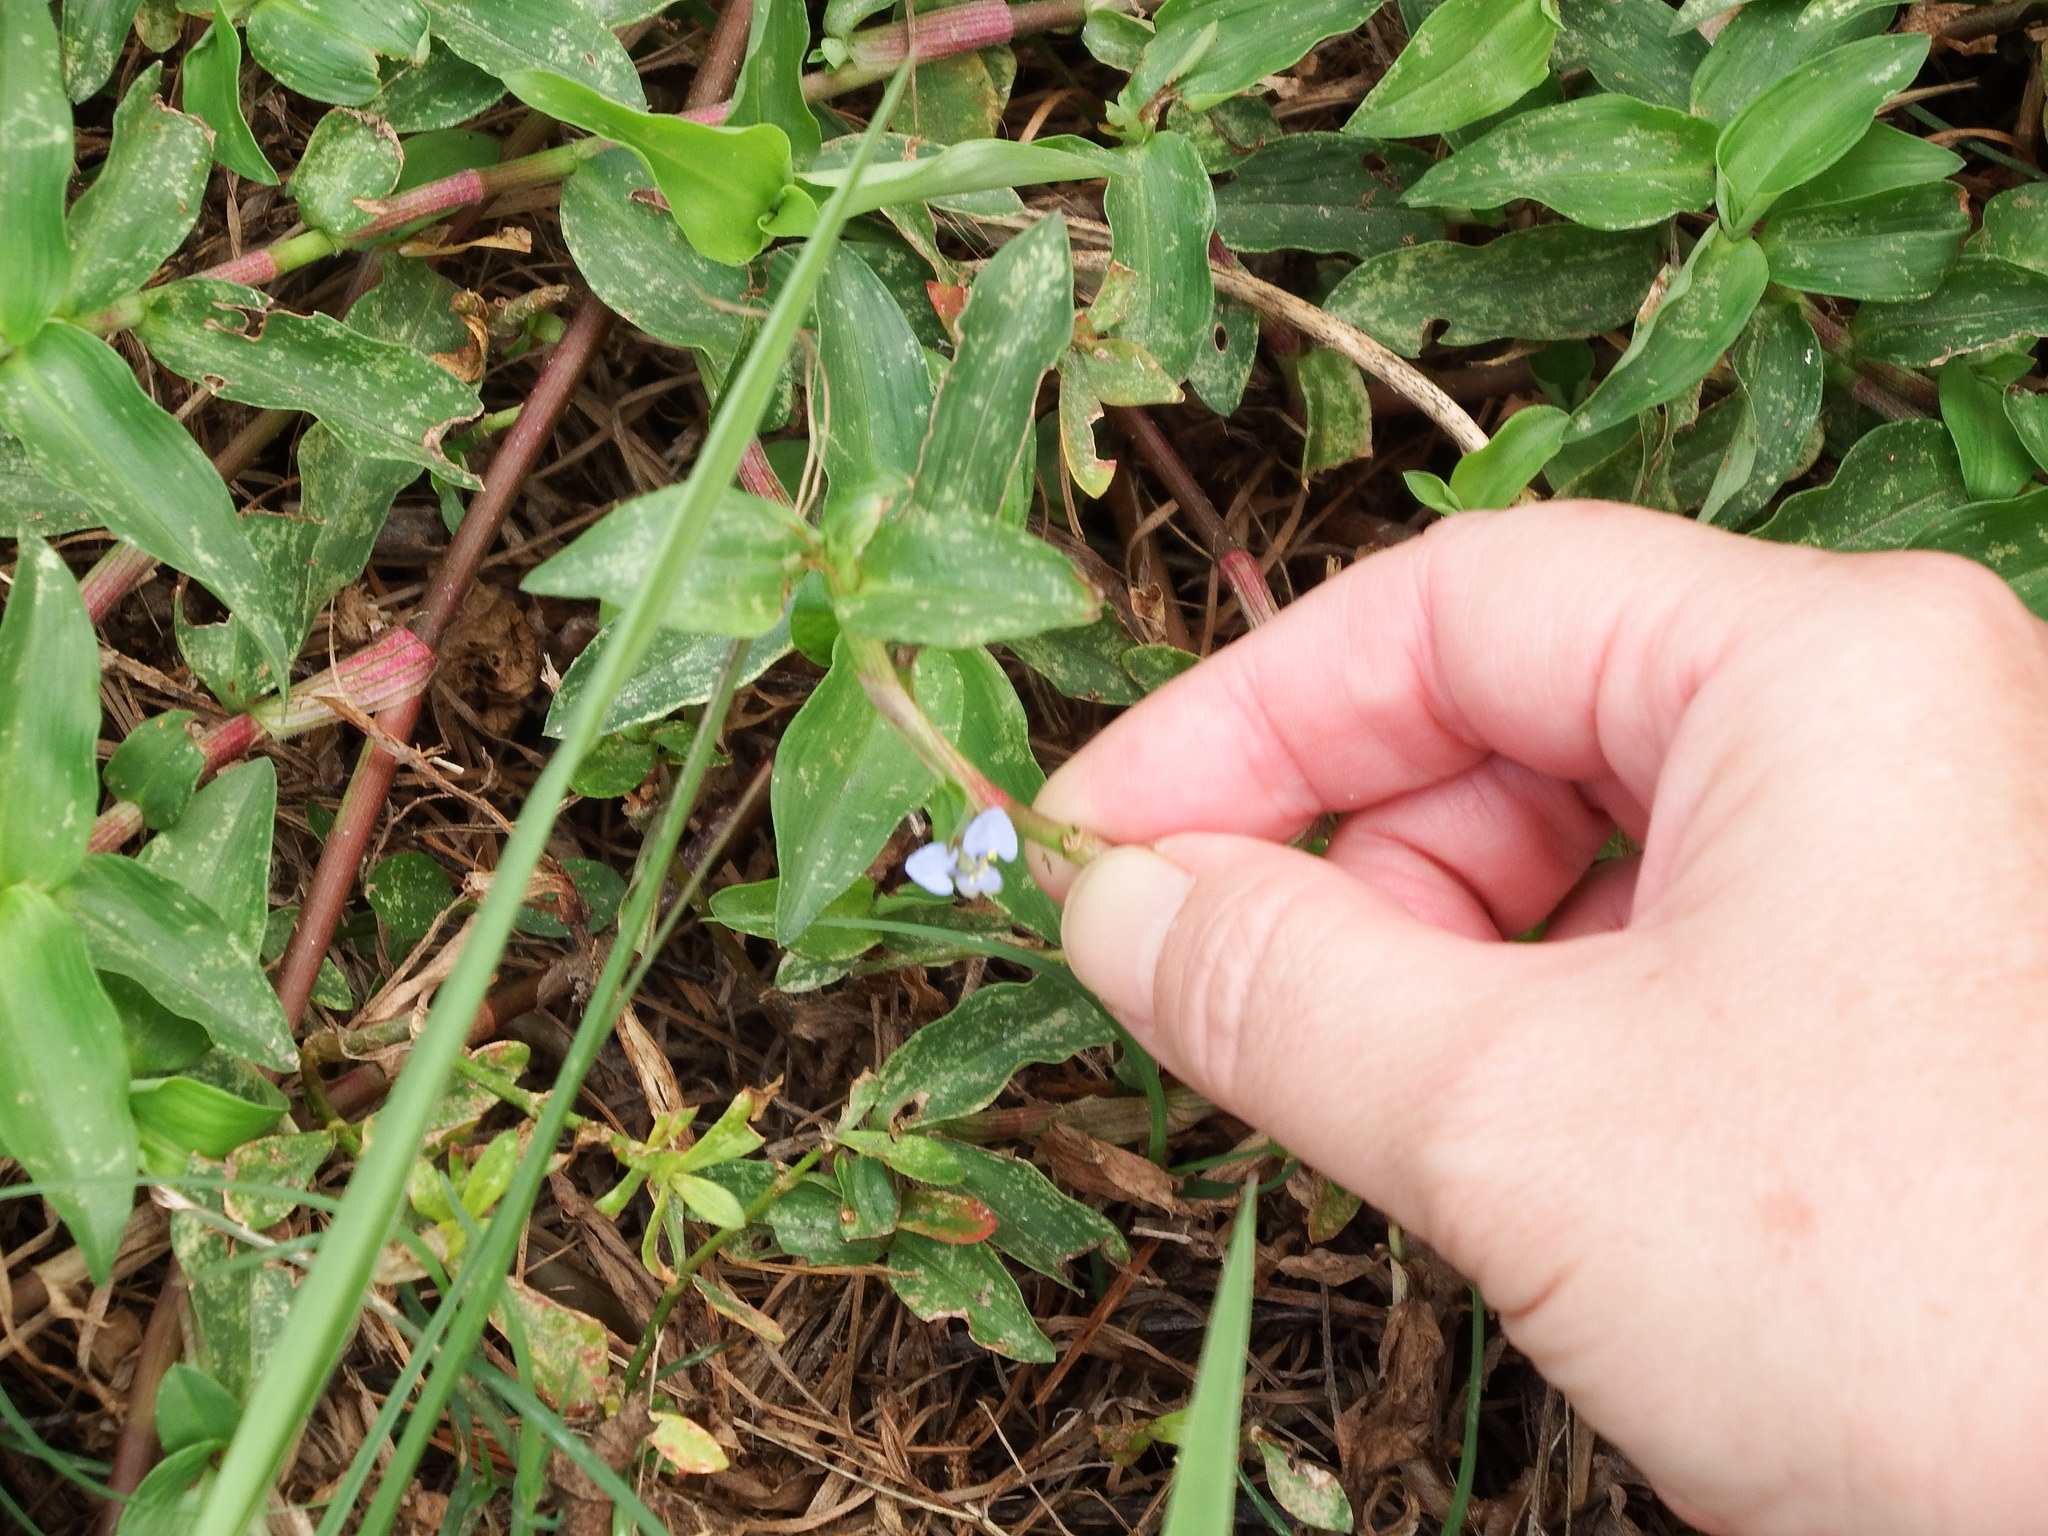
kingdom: Plantae
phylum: Tracheophyta
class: Liliopsida
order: Commelinales
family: Commelinaceae
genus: Commelina
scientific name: Commelina diffusa
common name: Climbing dayflower
